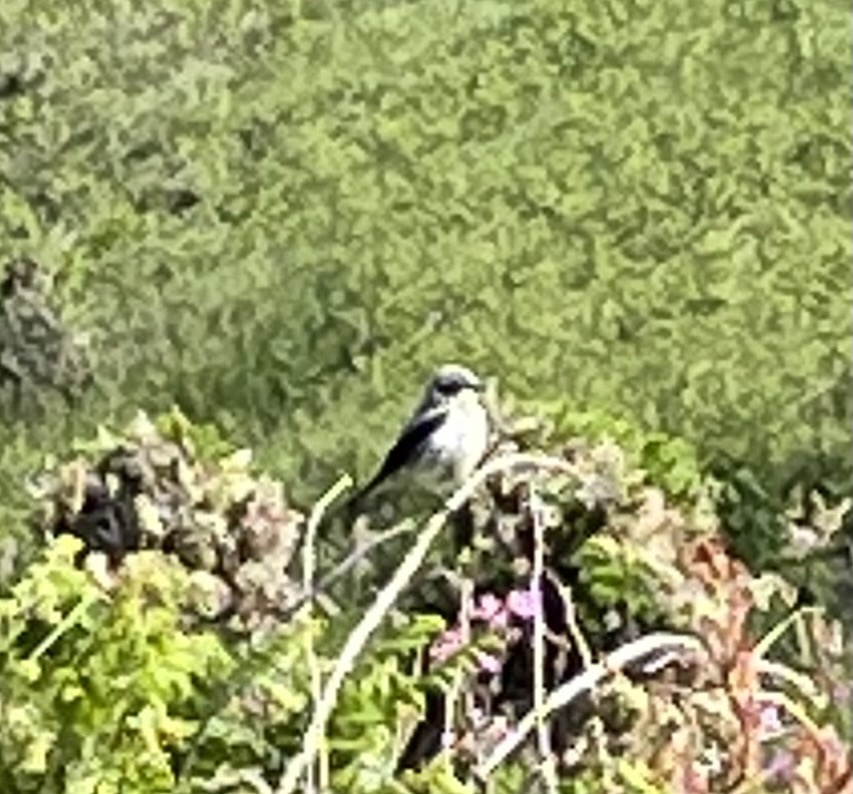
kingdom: Animalia
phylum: Chordata
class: Aves
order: Passeriformes
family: Muscicapidae
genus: Oenanthe
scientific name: Oenanthe oenanthe
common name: Northern wheatear
